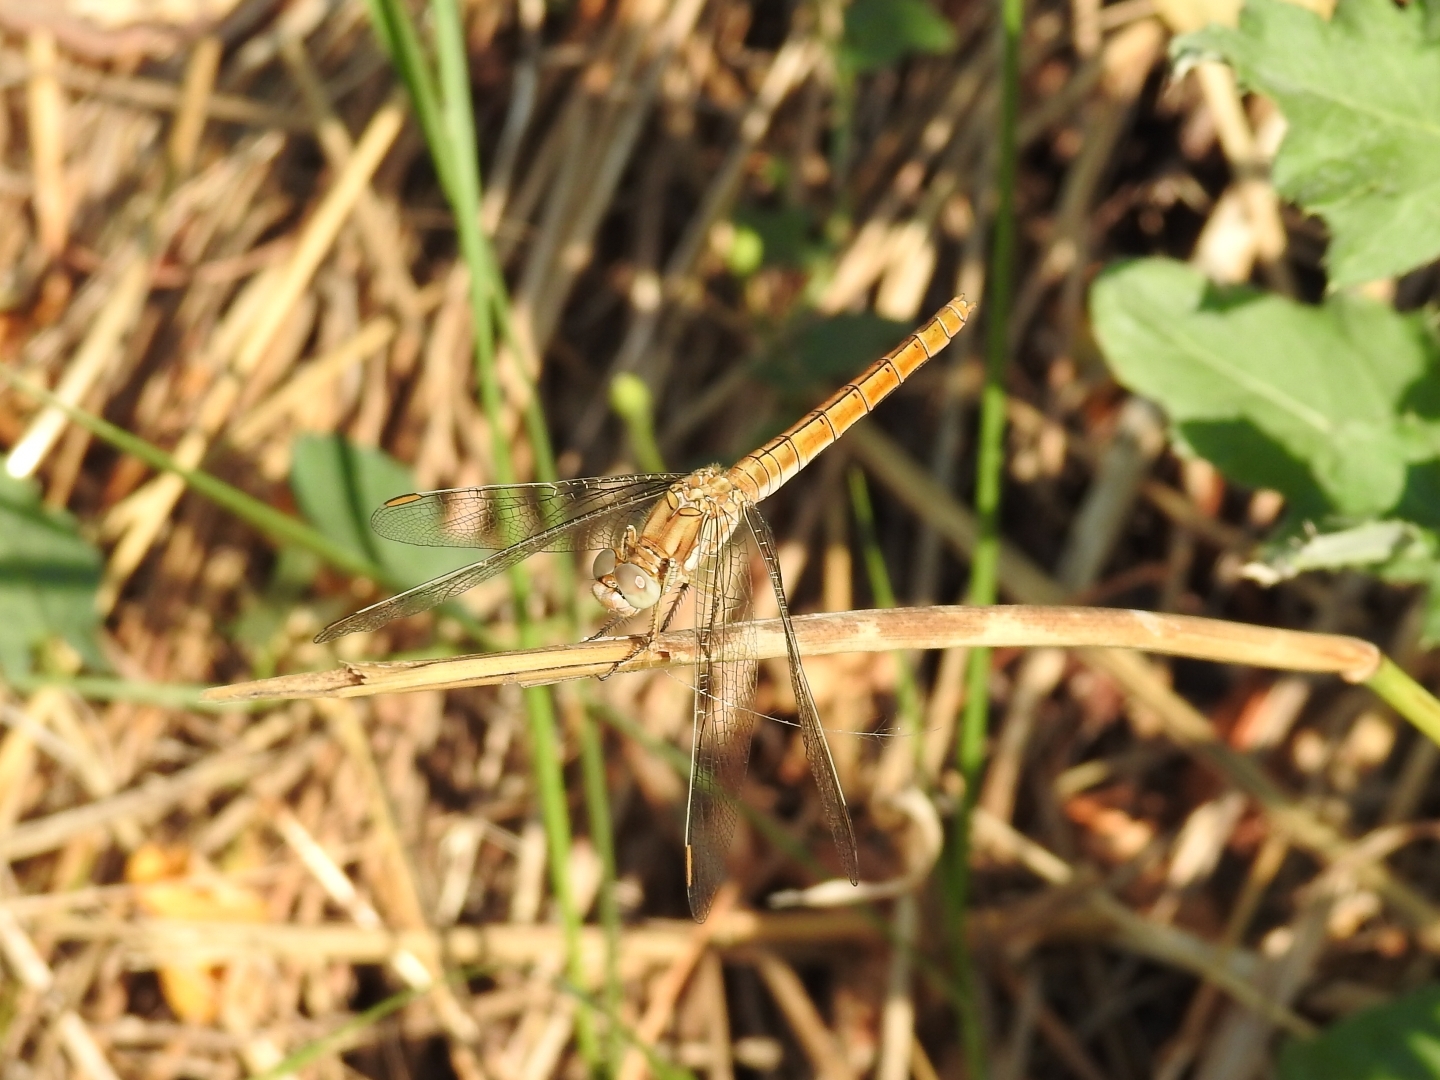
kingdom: Animalia
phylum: Arthropoda
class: Insecta
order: Odonata
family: Libellulidae
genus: Orthetrum
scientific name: Orthetrum brunneum
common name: Southern skimmer
